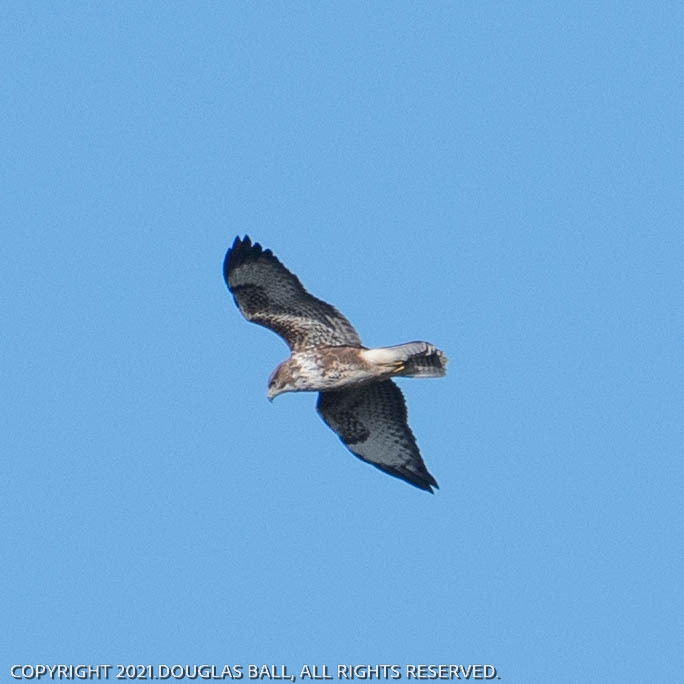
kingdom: Animalia
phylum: Chordata
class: Aves
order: Accipitriformes
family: Accipitridae
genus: Buteo
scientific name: Buteo buteo
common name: Common buzzard
